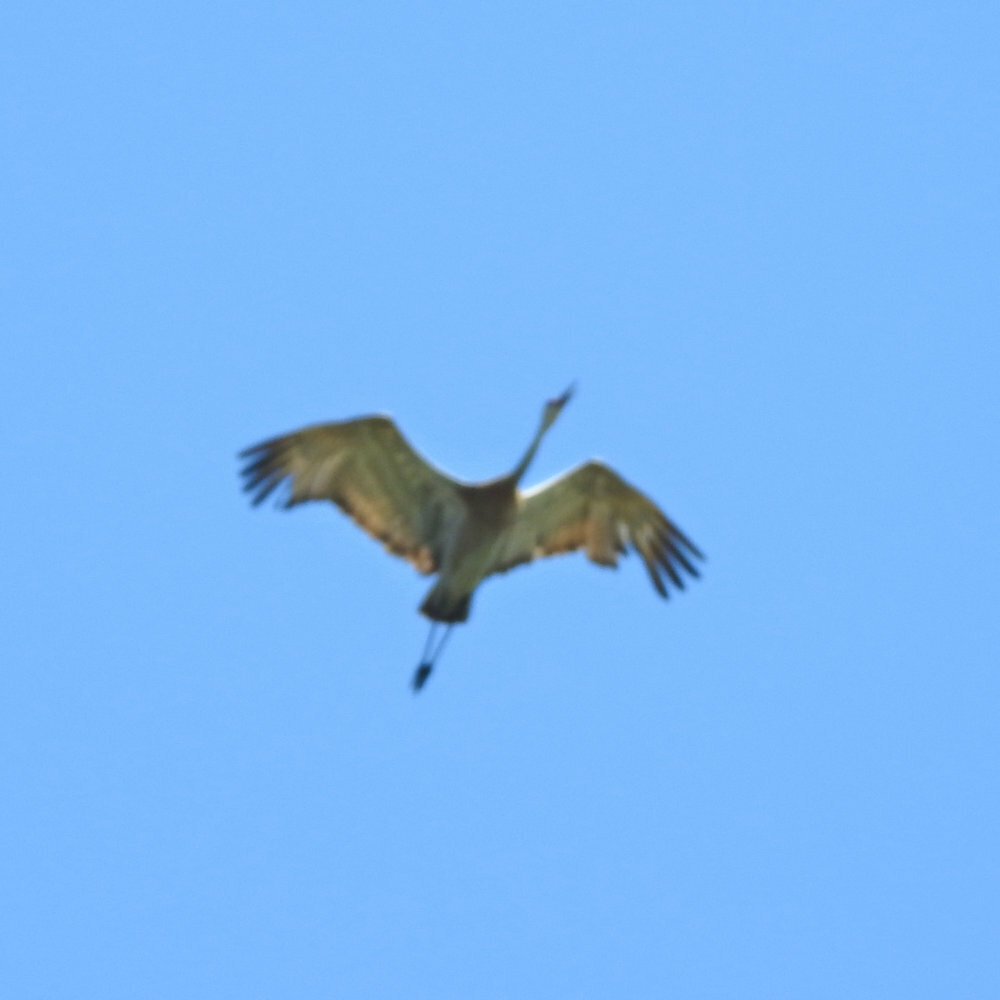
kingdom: Animalia
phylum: Chordata
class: Aves
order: Gruiformes
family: Gruidae
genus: Grus
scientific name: Grus canadensis
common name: Sandhill crane
